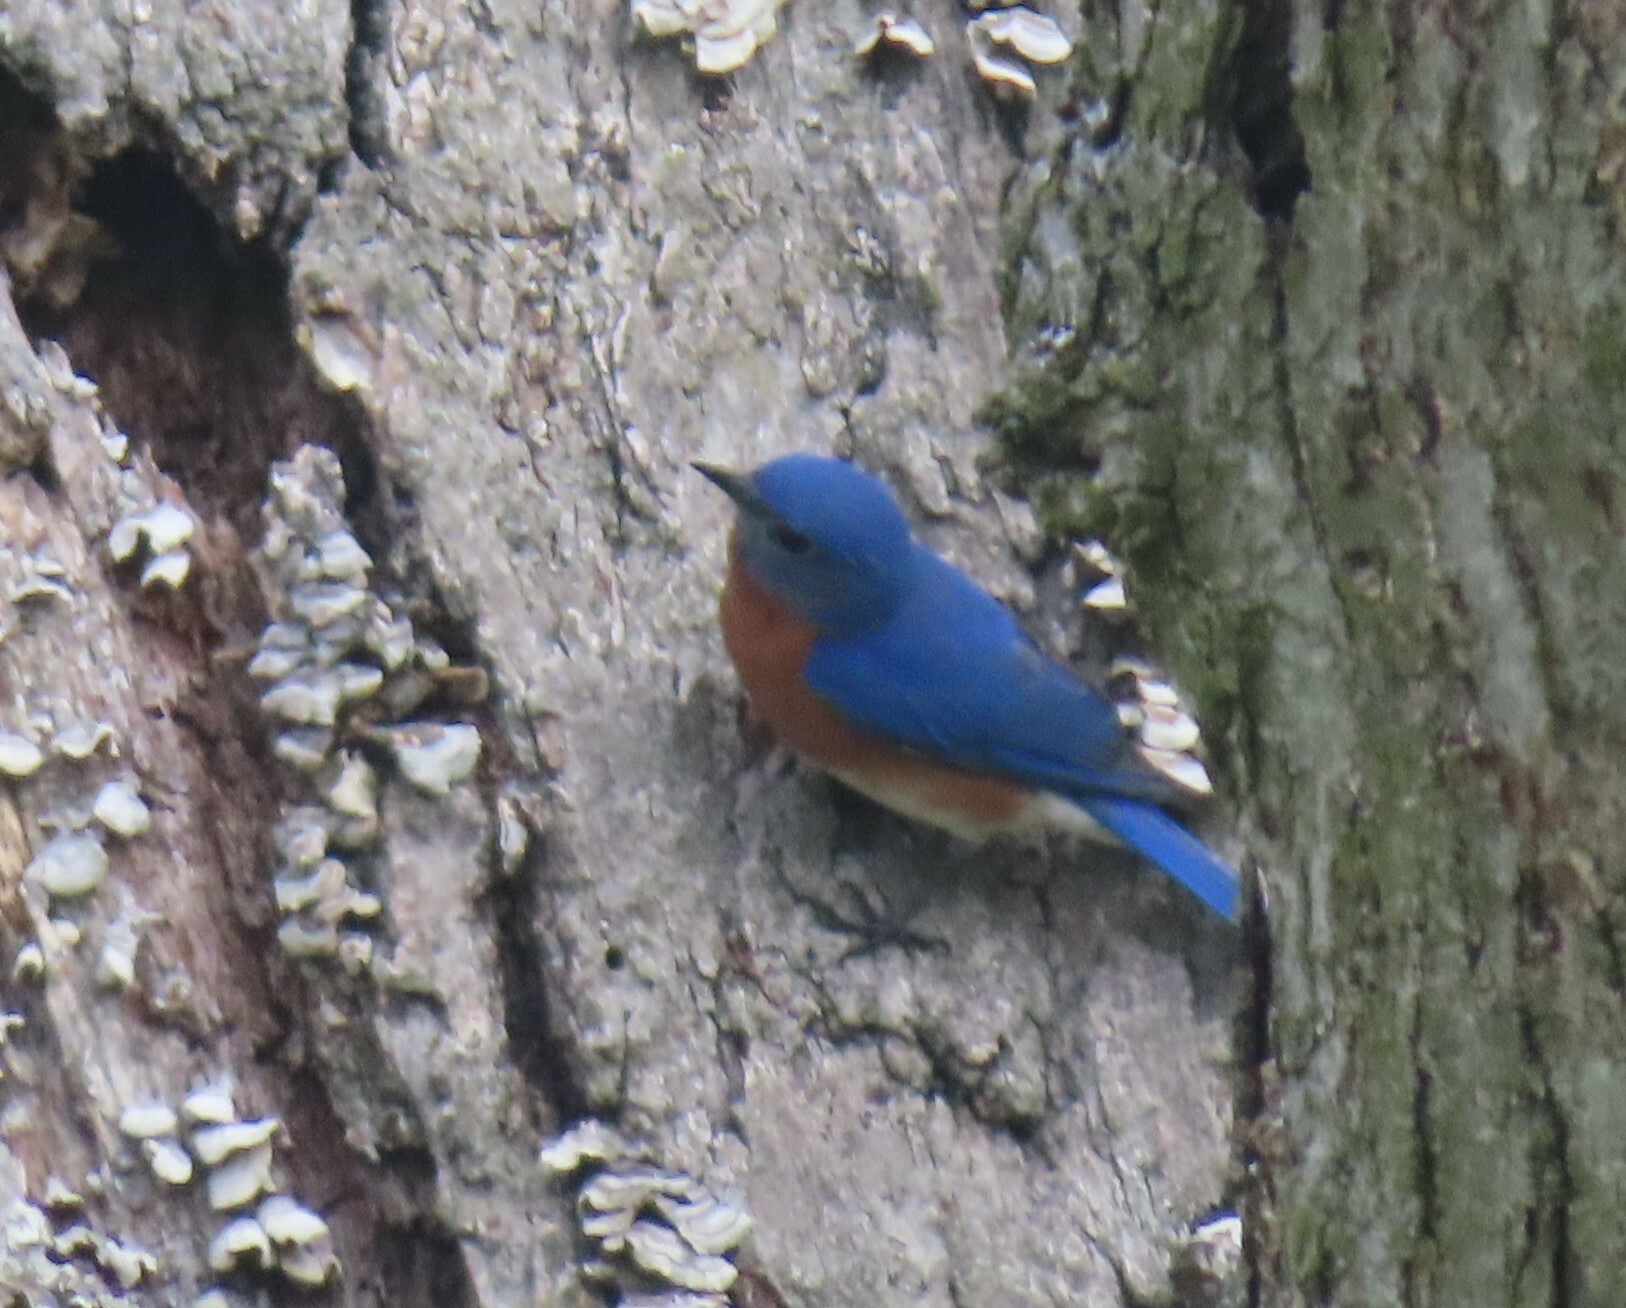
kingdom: Animalia
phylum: Chordata
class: Aves
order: Passeriformes
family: Turdidae
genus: Sialia
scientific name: Sialia sialis
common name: Eastern bluebird
